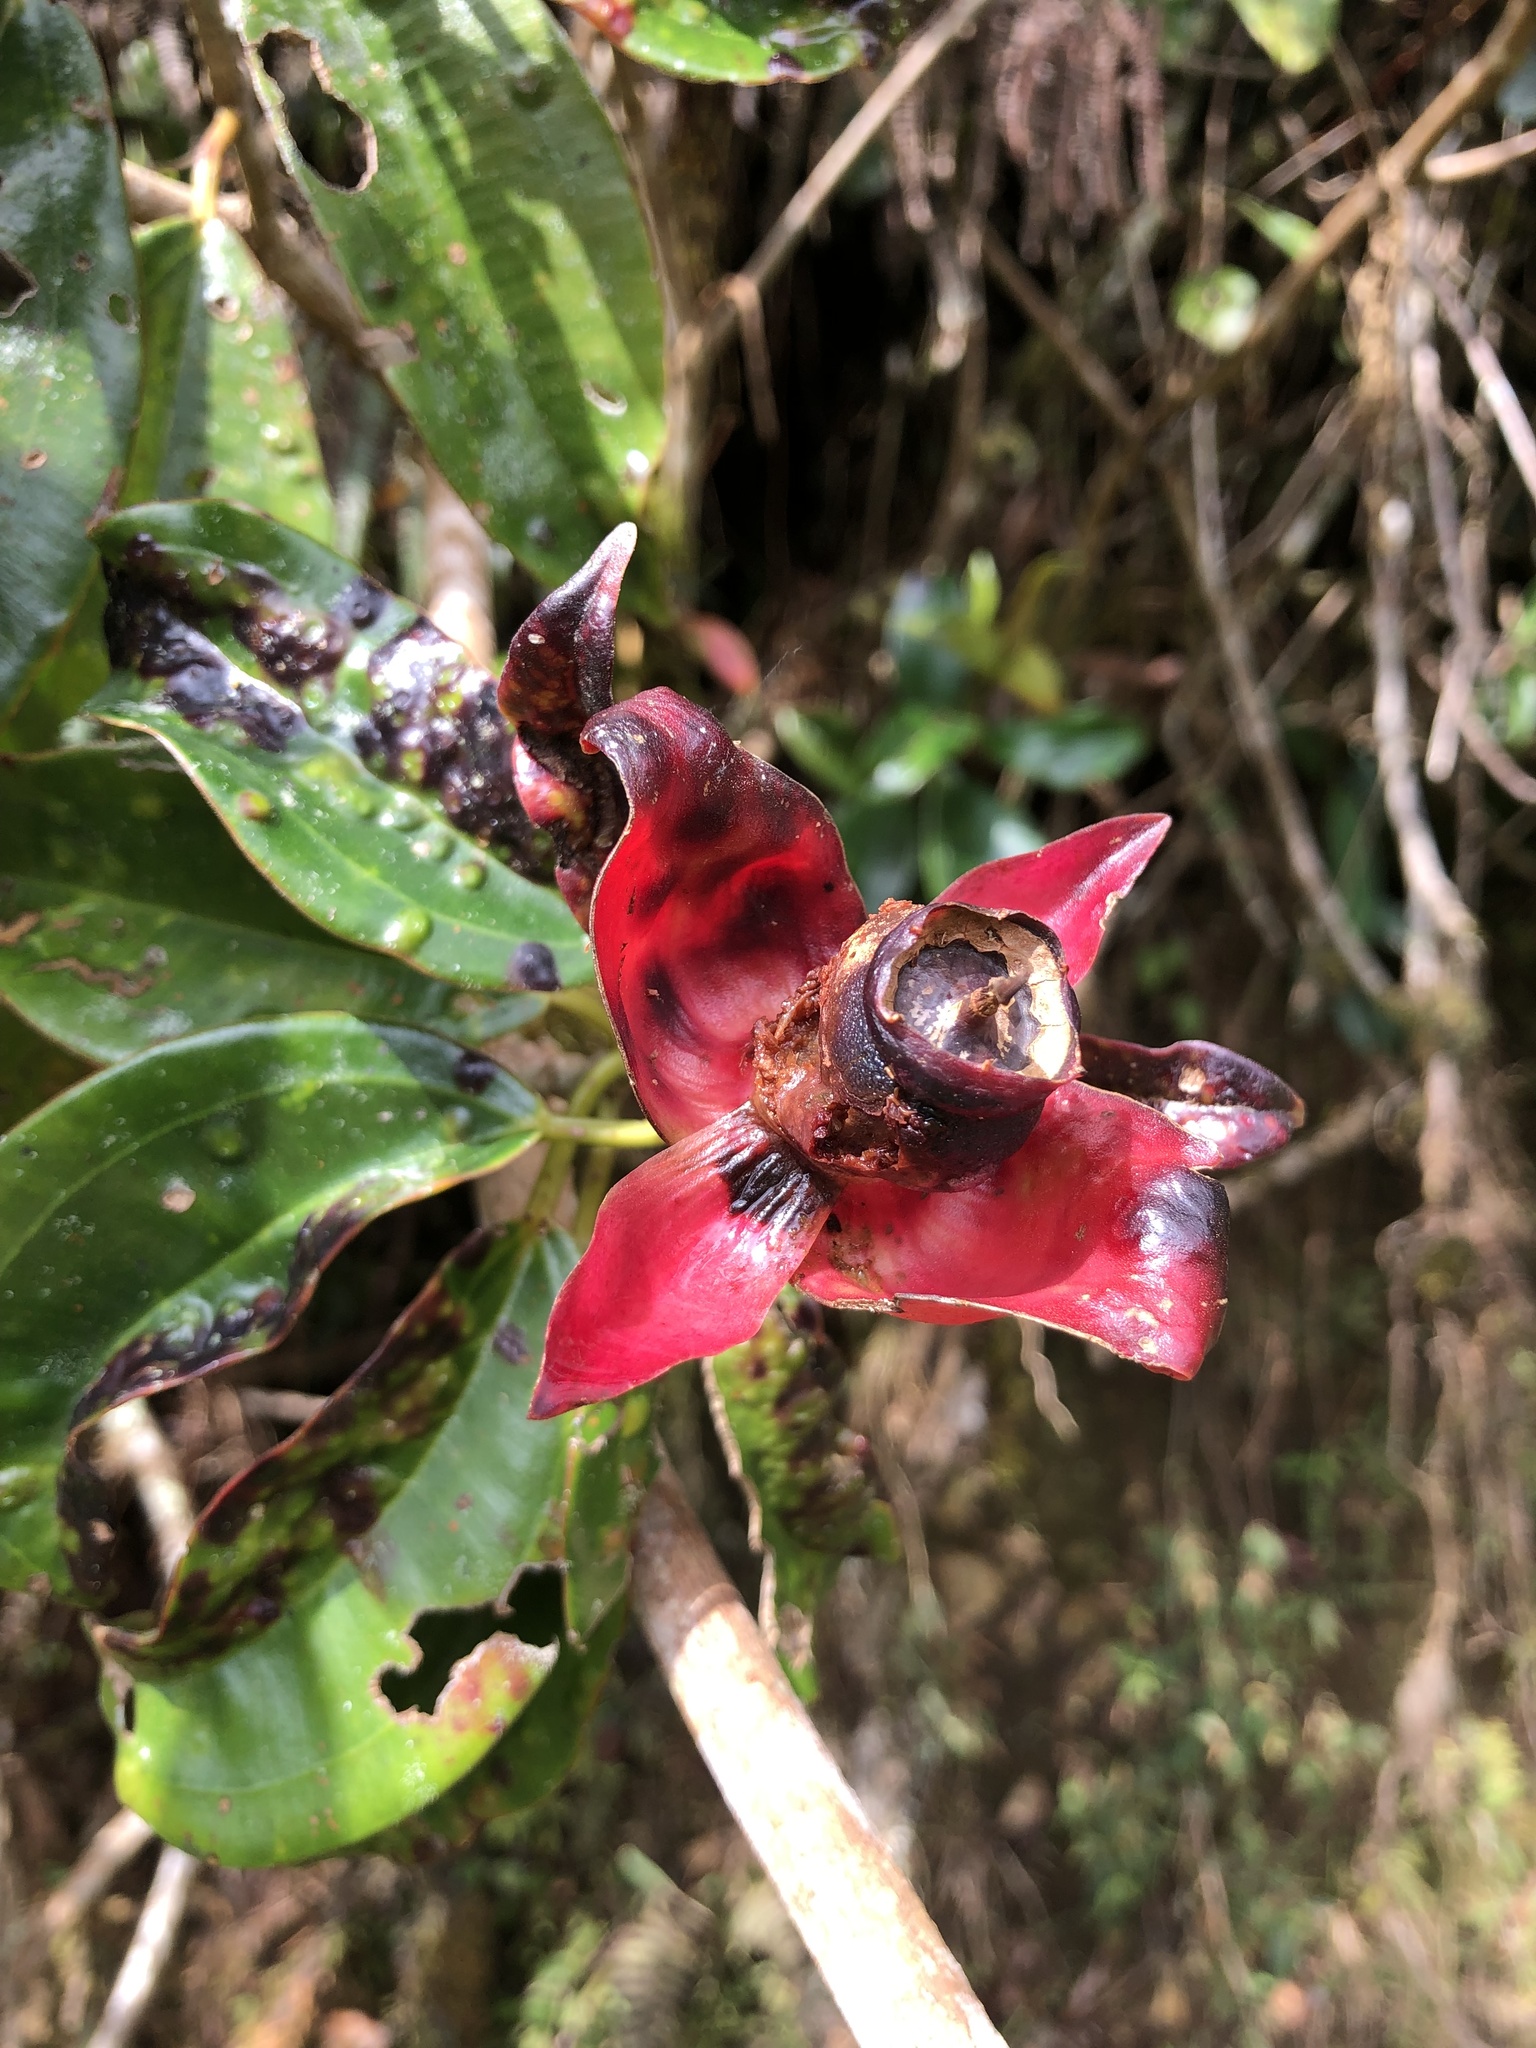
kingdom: Plantae
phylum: Tracheophyta
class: Magnoliopsida
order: Myrtales
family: Melastomataceae
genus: Blakea
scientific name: Blakea quadrangularis
